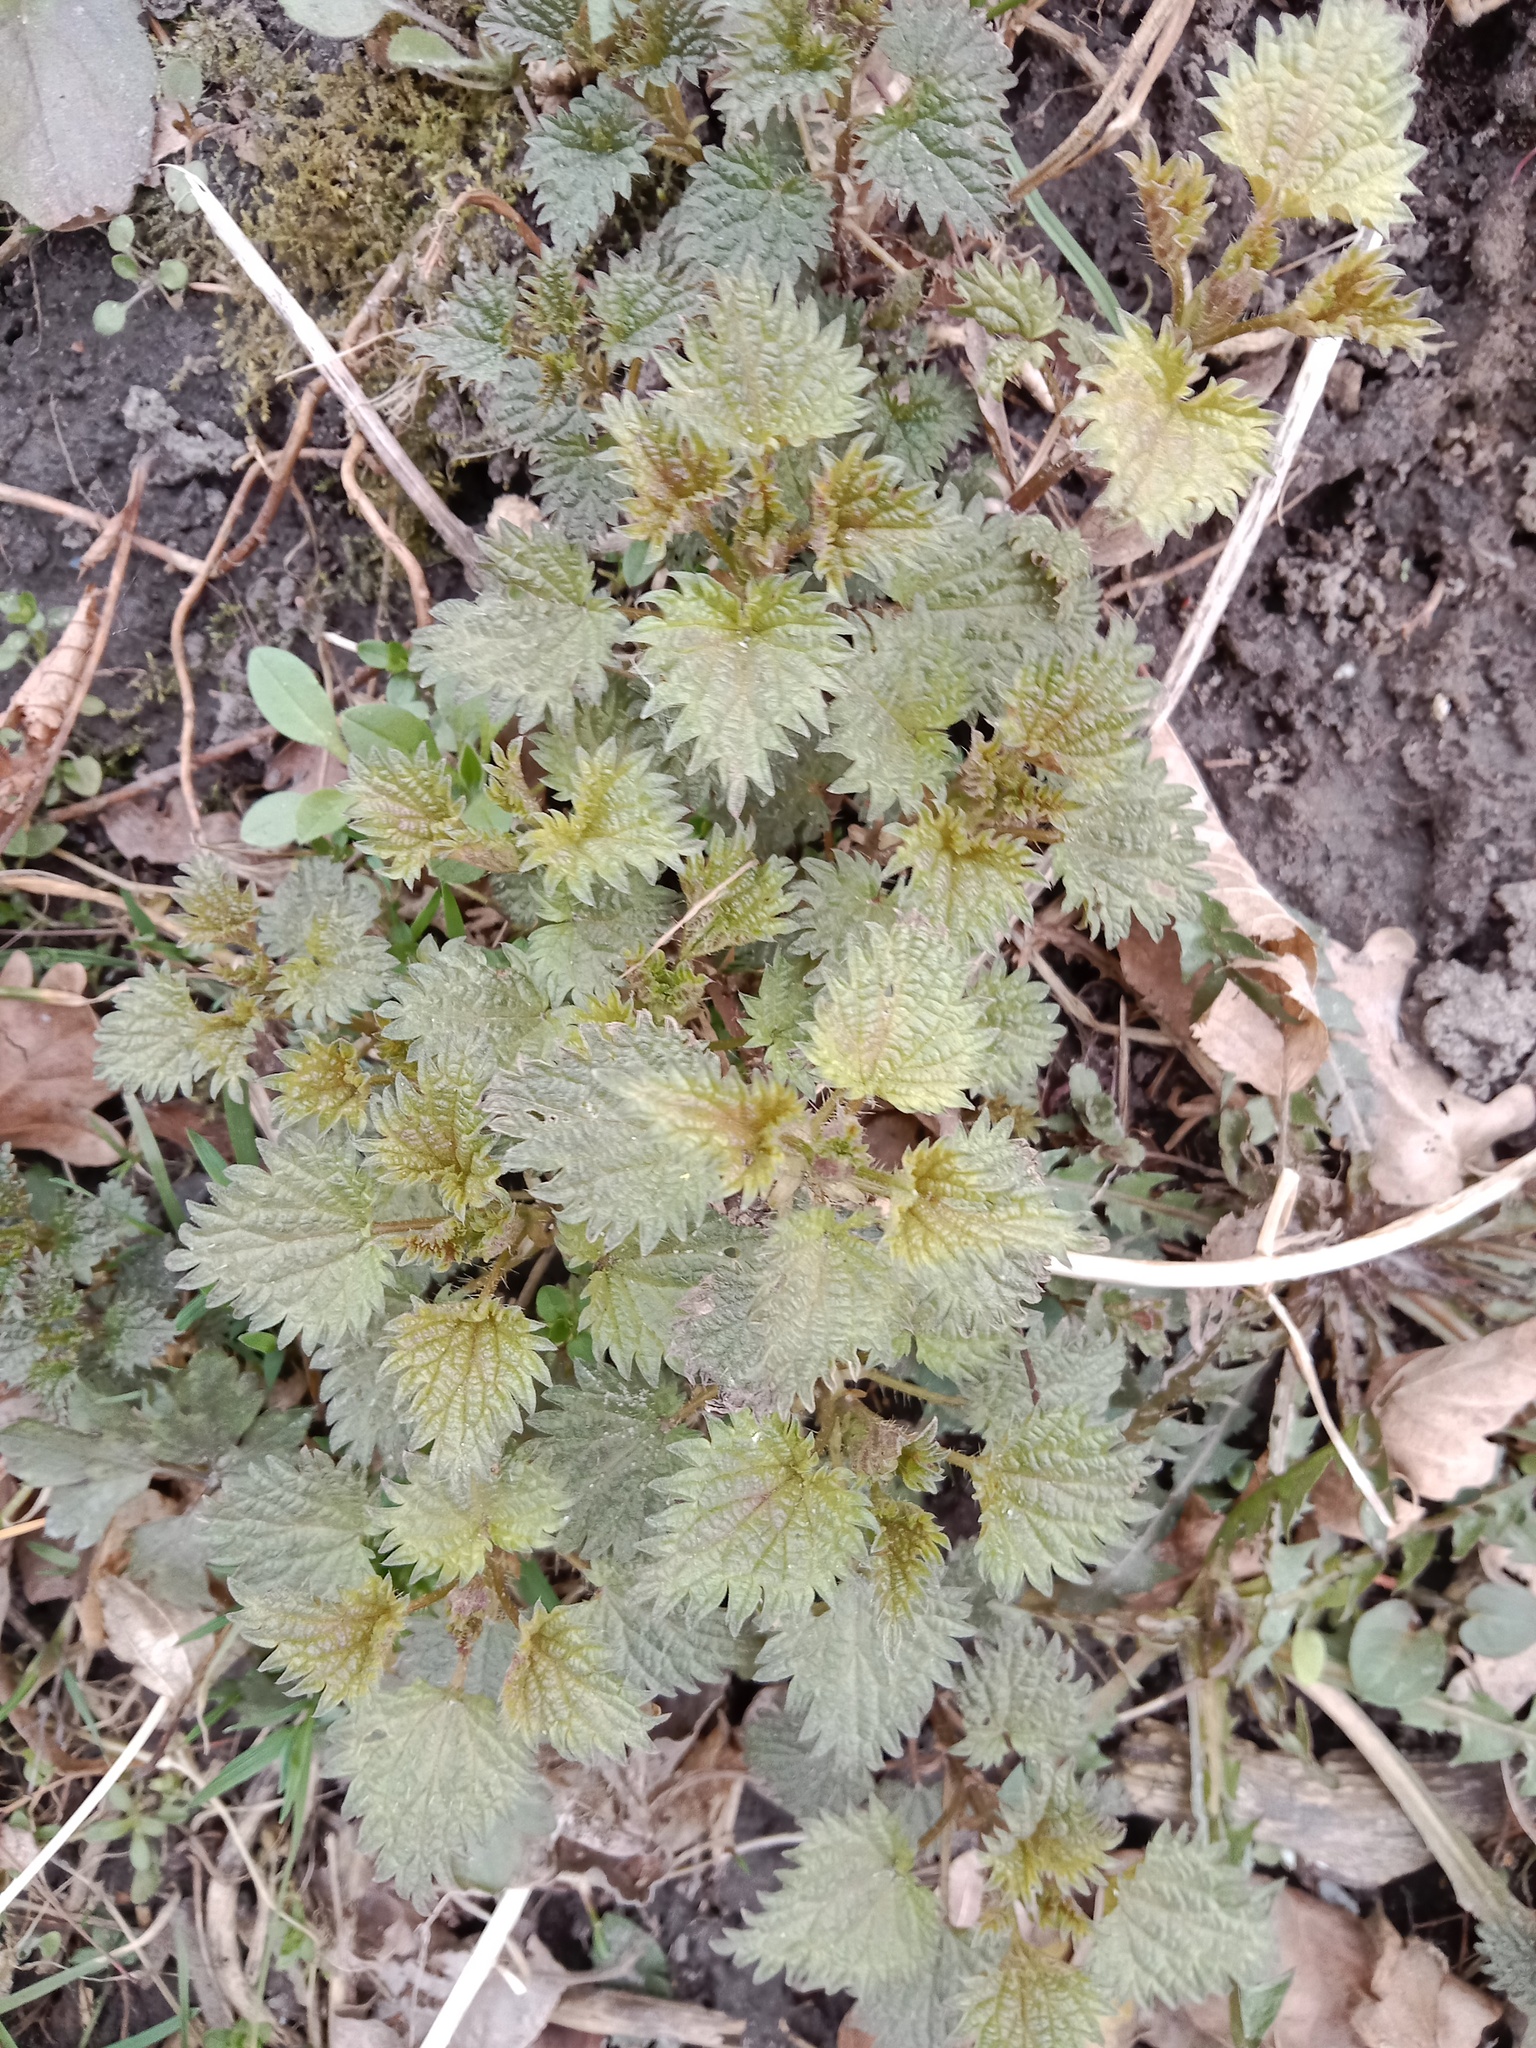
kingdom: Plantae
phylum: Tracheophyta
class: Magnoliopsida
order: Rosales
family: Urticaceae
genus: Urtica
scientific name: Urtica dioica
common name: Common nettle
